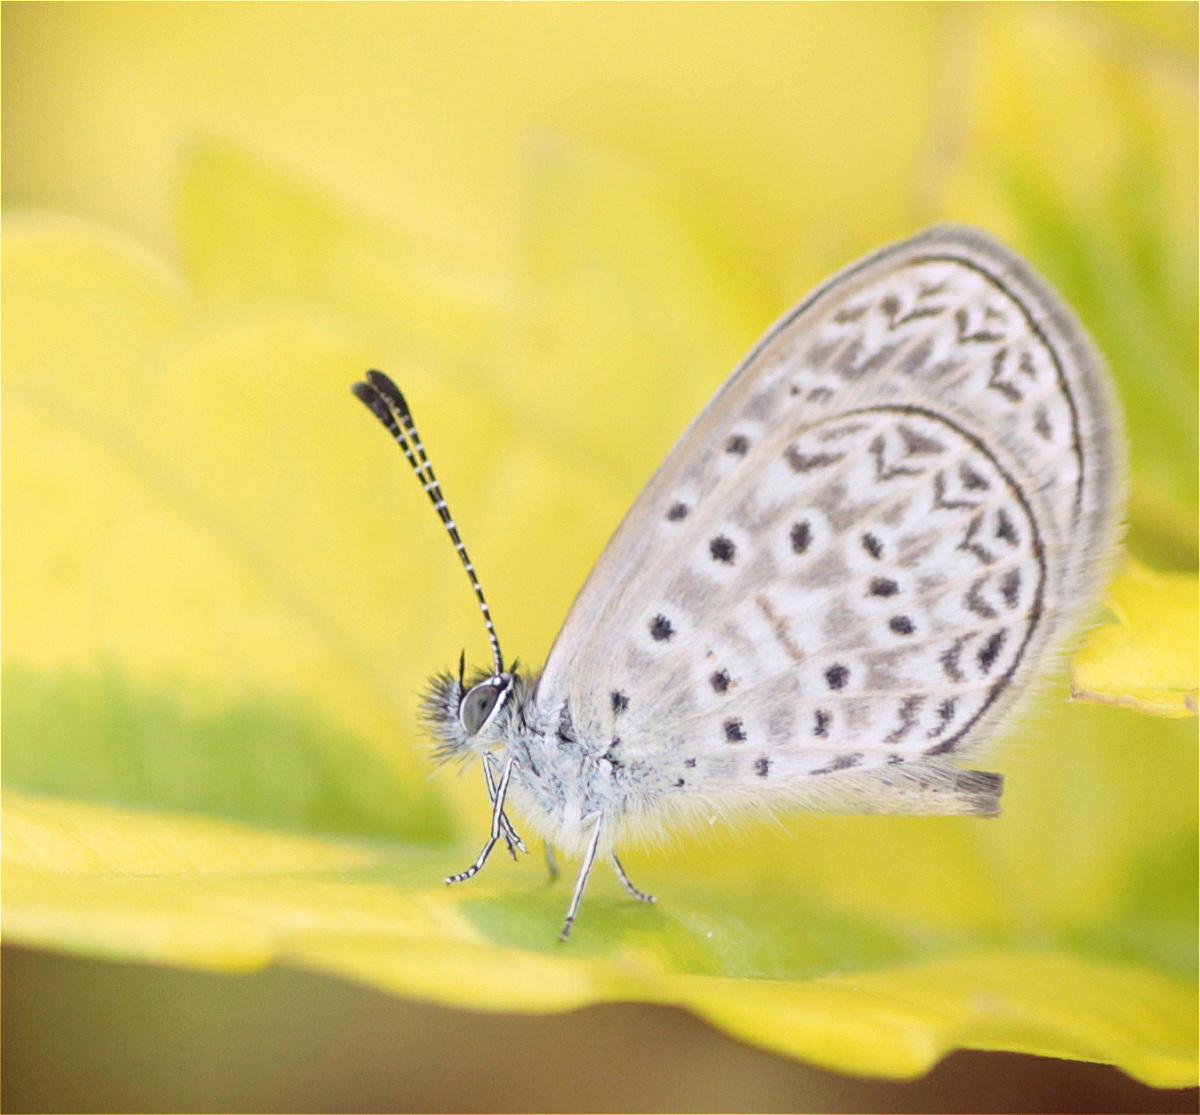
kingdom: Animalia
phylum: Arthropoda
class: Insecta
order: Lepidoptera
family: Lycaenidae
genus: Lycaena
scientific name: Lycaena cyna
